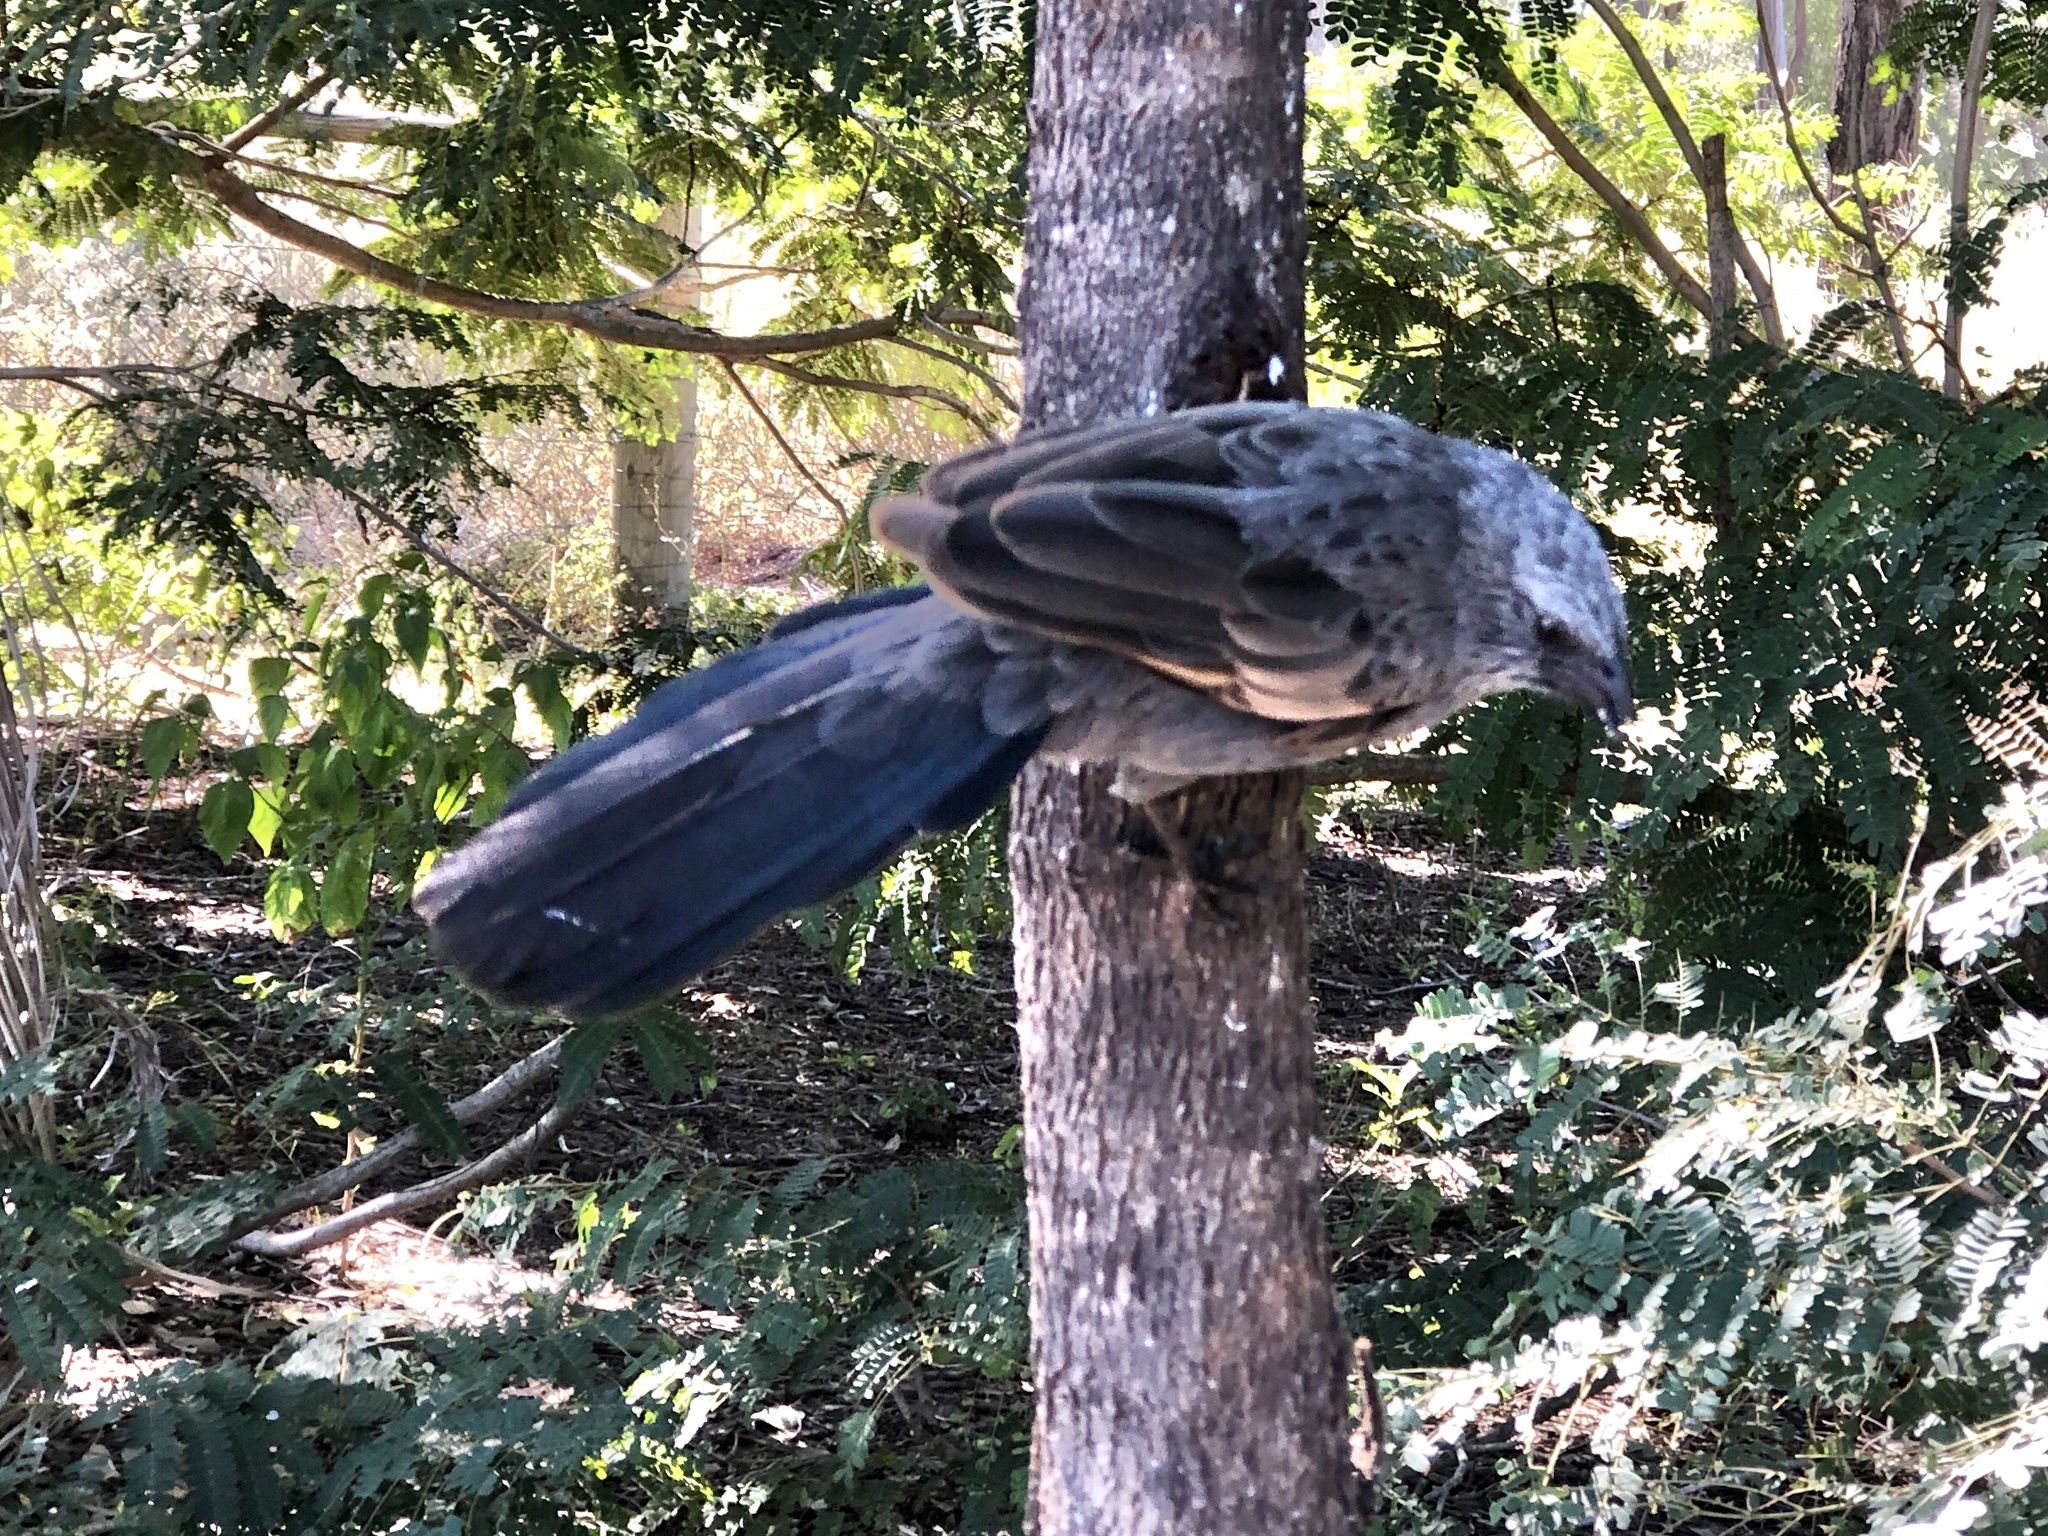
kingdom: Animalia
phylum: Chordata
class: Aves
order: Passeriformes
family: Corcoracidae
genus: Struthidea
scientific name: Struthidea cinerea
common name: Apostlebird
